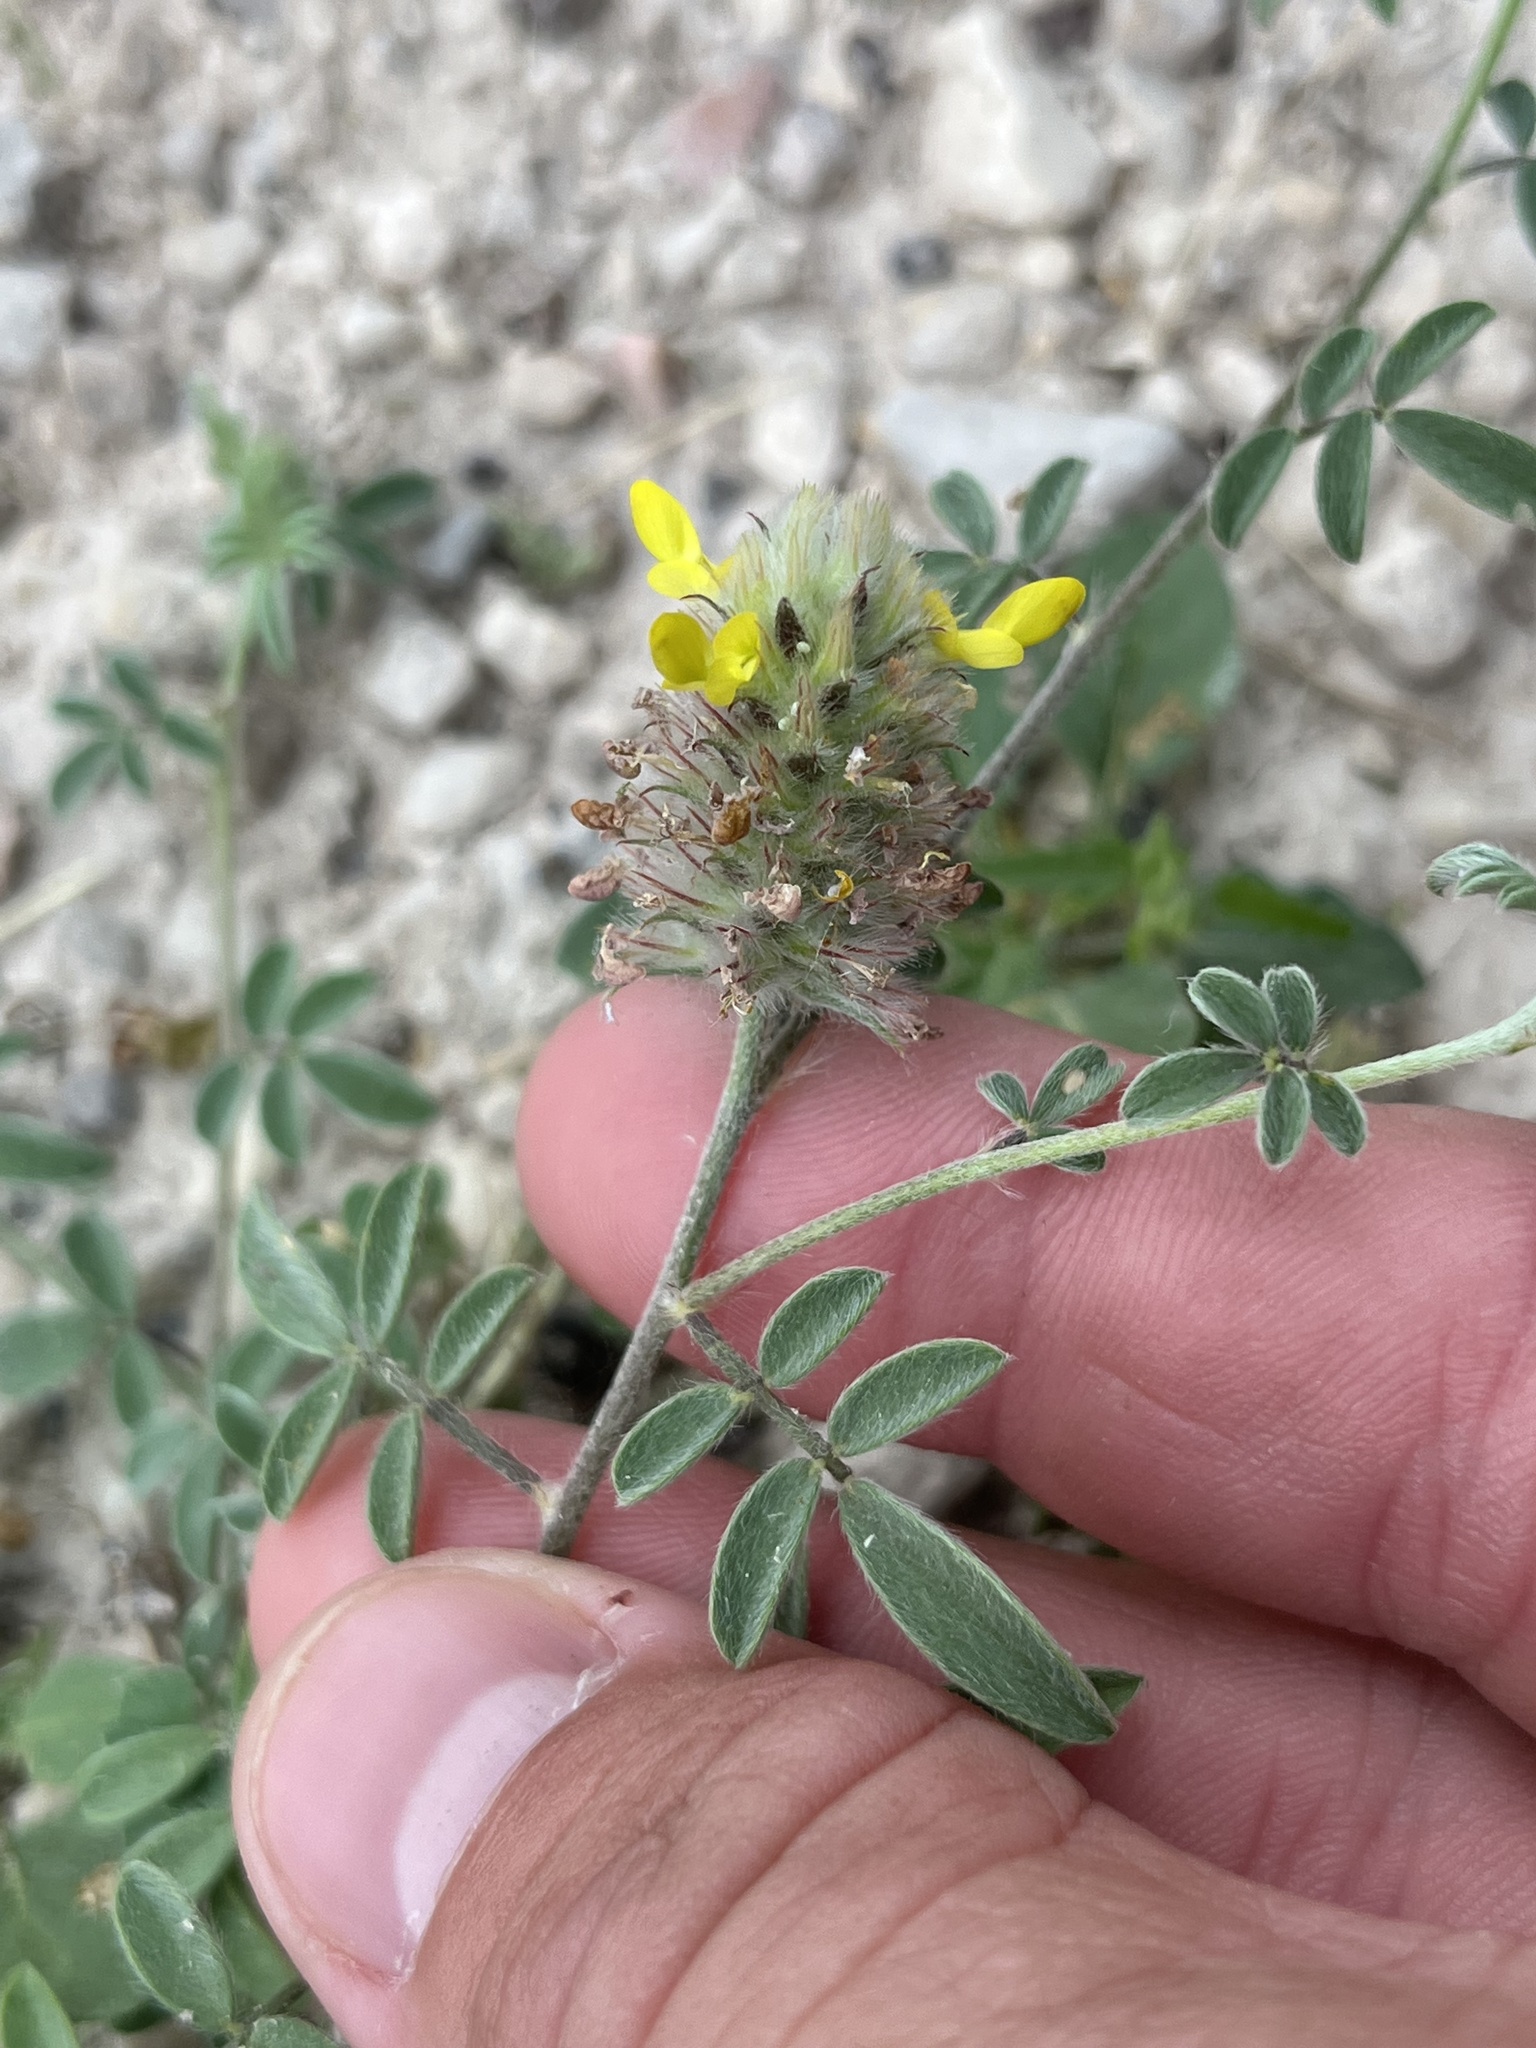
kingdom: Plantae
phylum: Tracheophyta
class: Magnoliopsida
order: Fabales
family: Fabaceae
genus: Dalea
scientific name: Dalea nana
